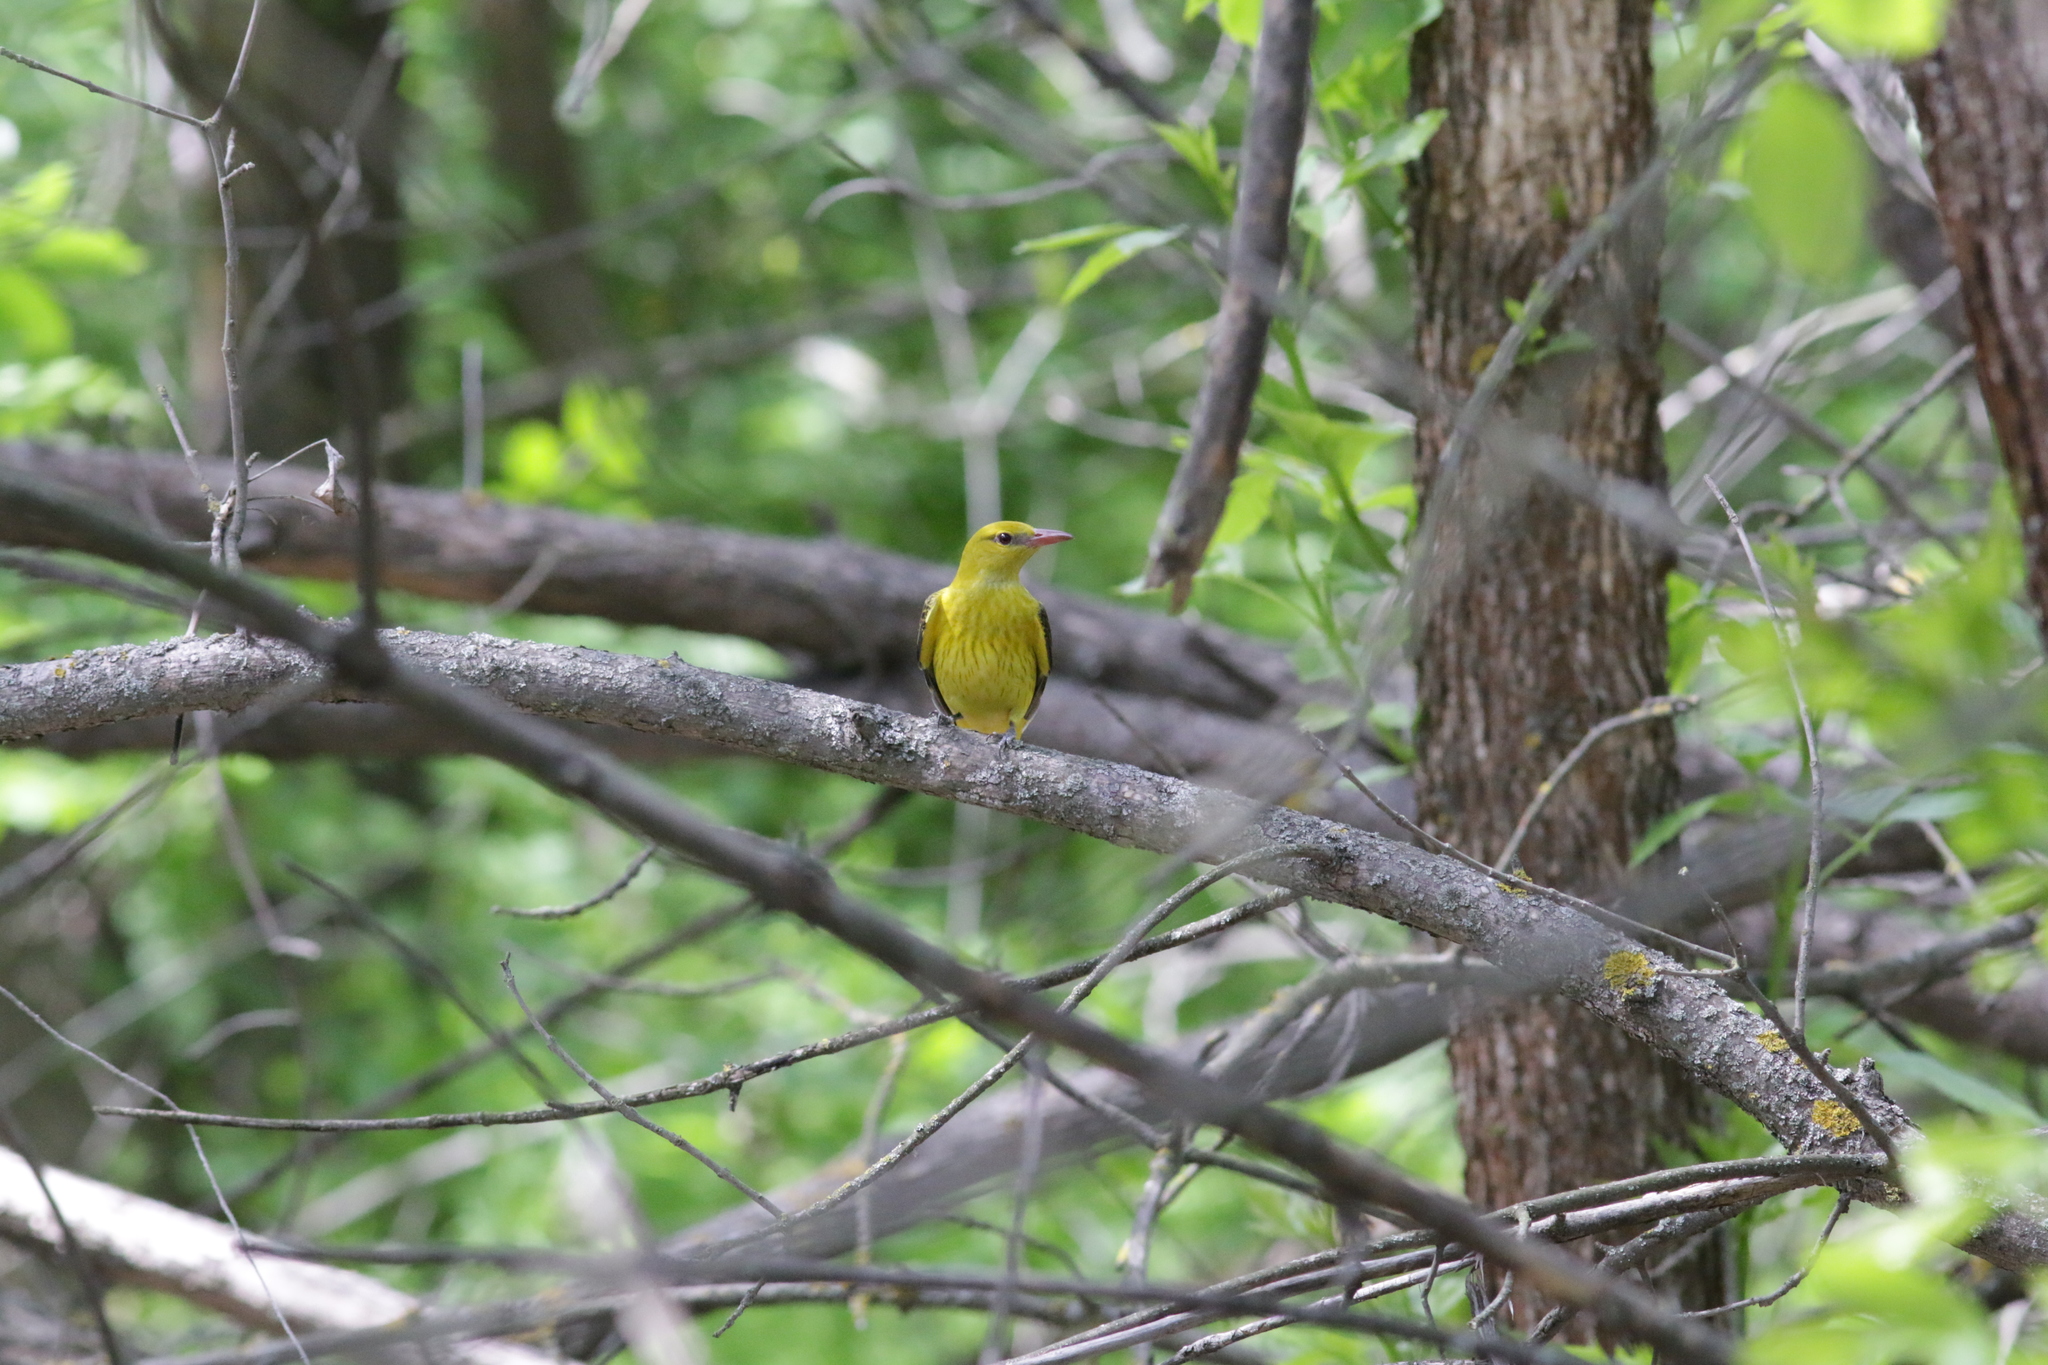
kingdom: Animalia
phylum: Chordata
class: Aves
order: Passeriformes
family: Oriolidae
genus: Oriolus
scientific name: Oriolus oriolus
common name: Eurasian golden oriole
